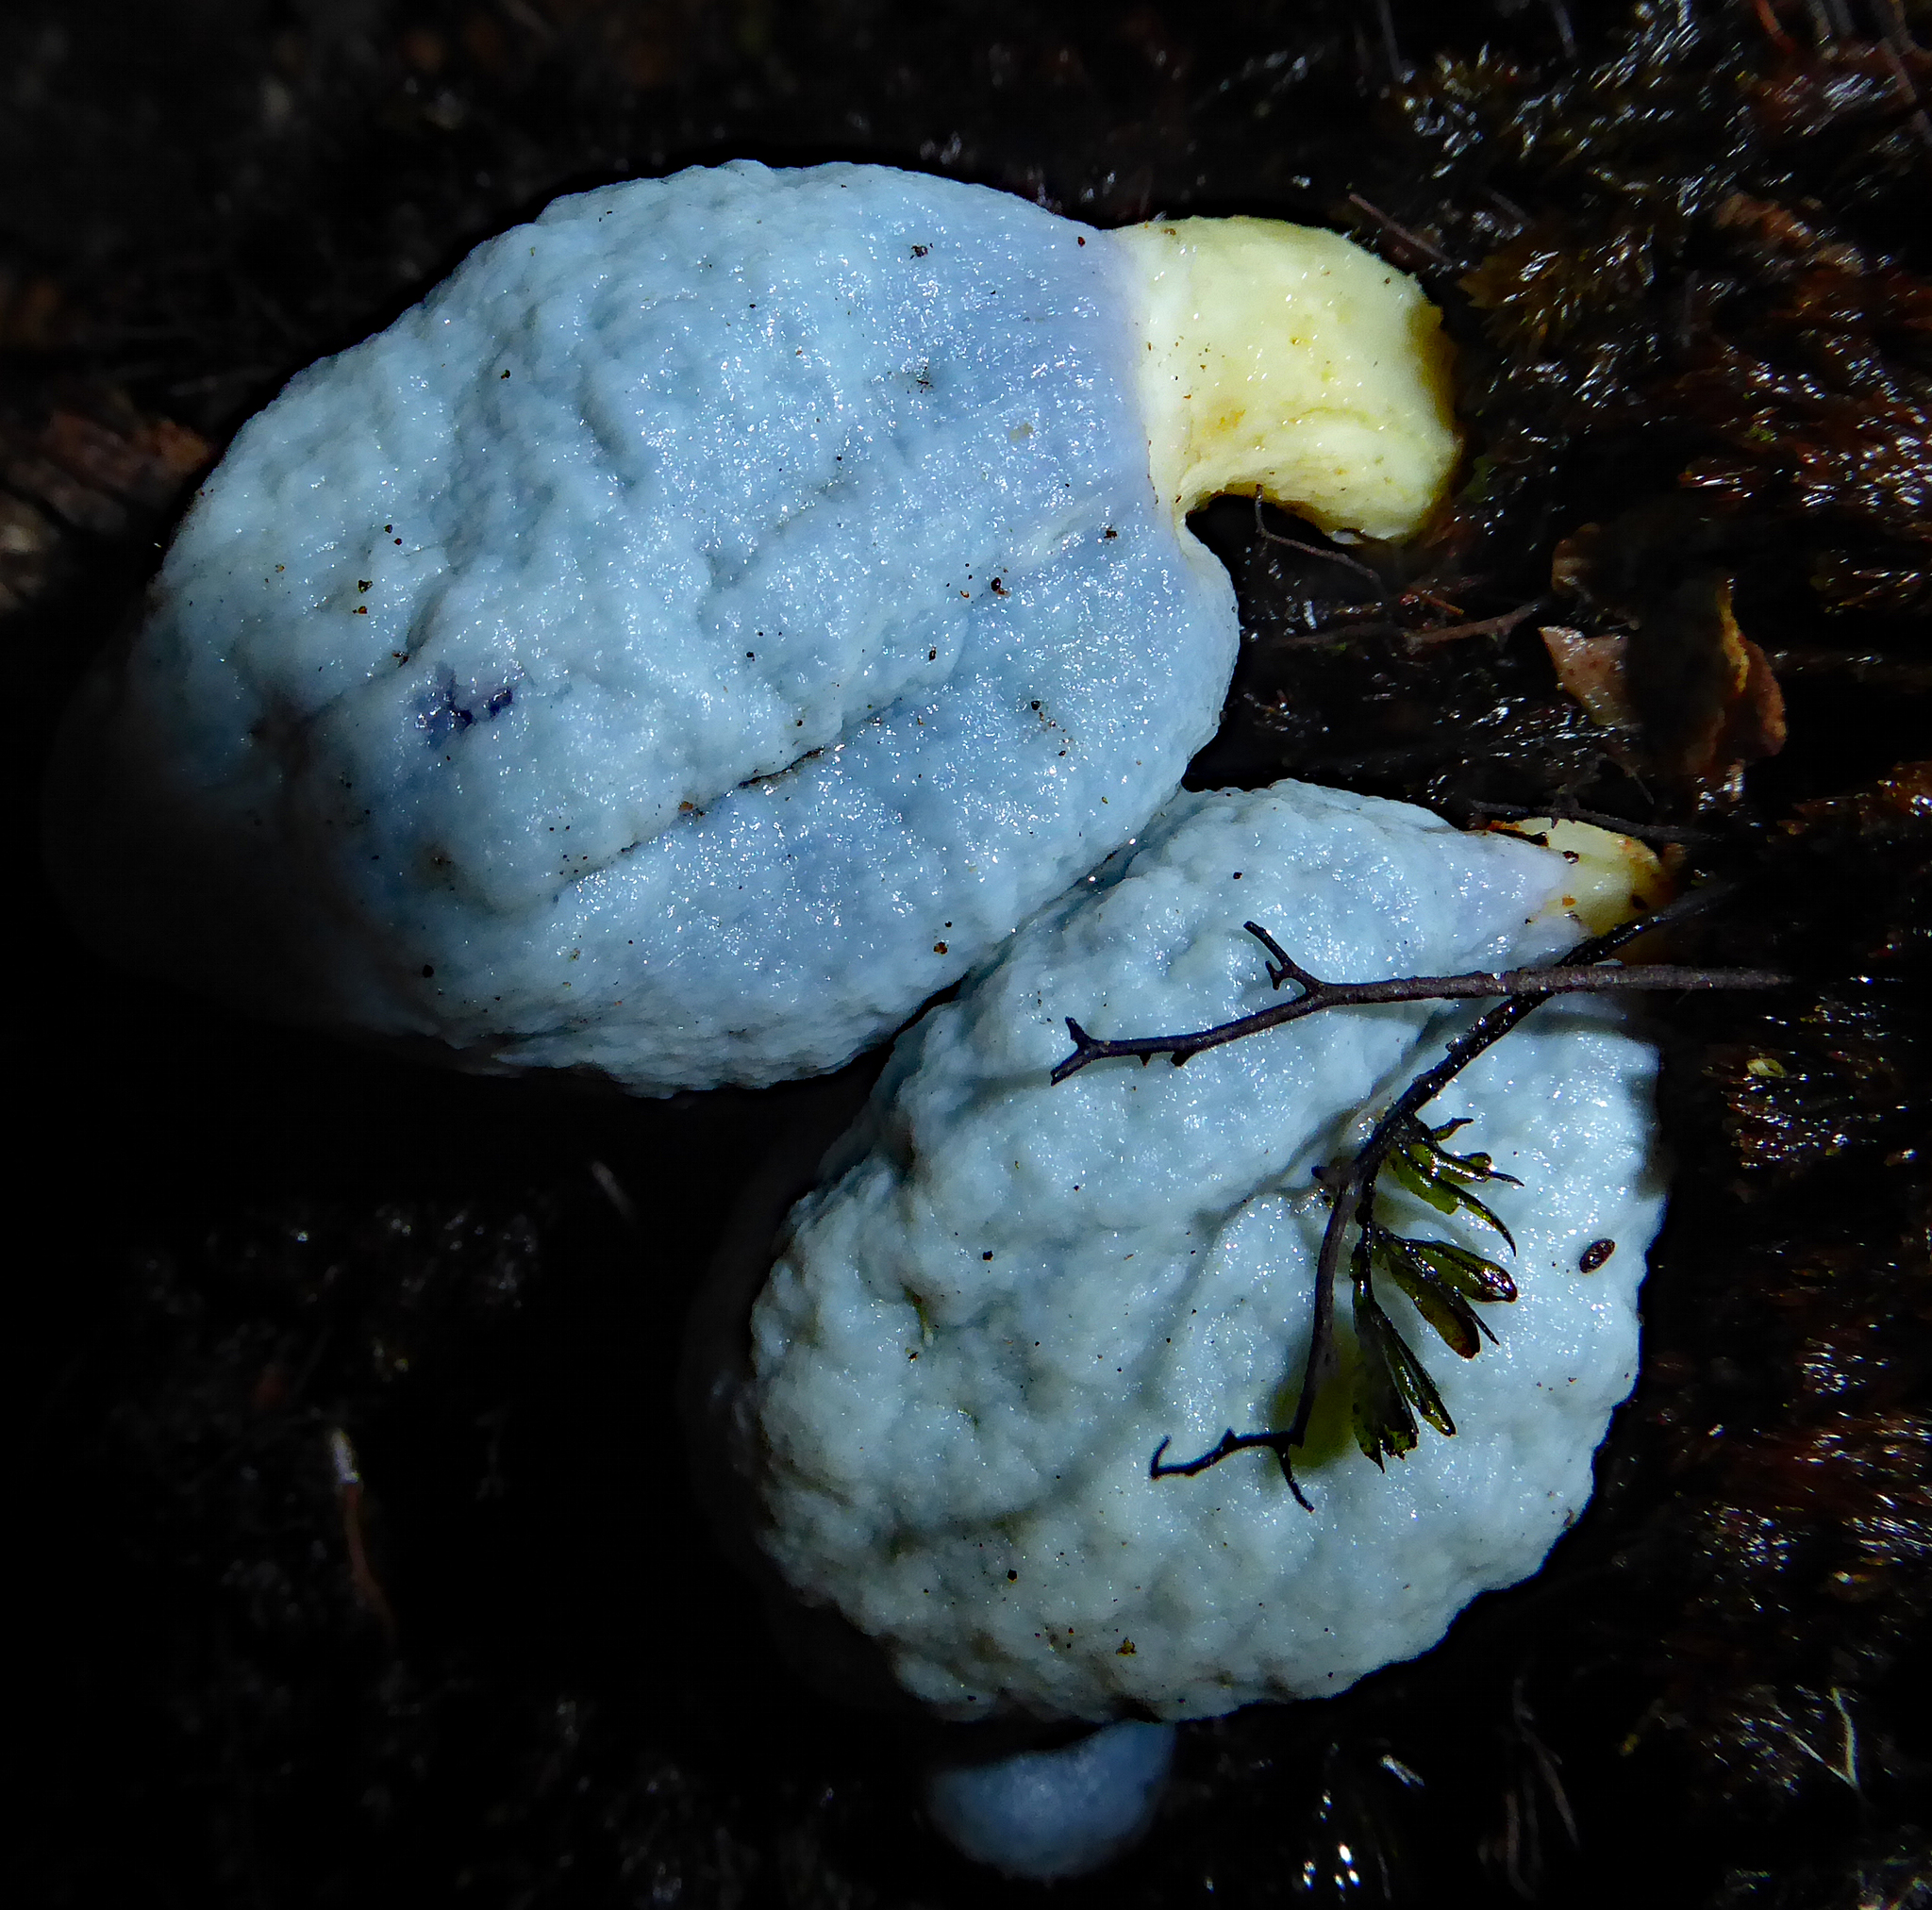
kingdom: Fungi
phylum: Basidiomycota
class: Agaricomycetes
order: Agaricales
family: Agaricaceae
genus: Clavogaster
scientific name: Clavogaster virescens
